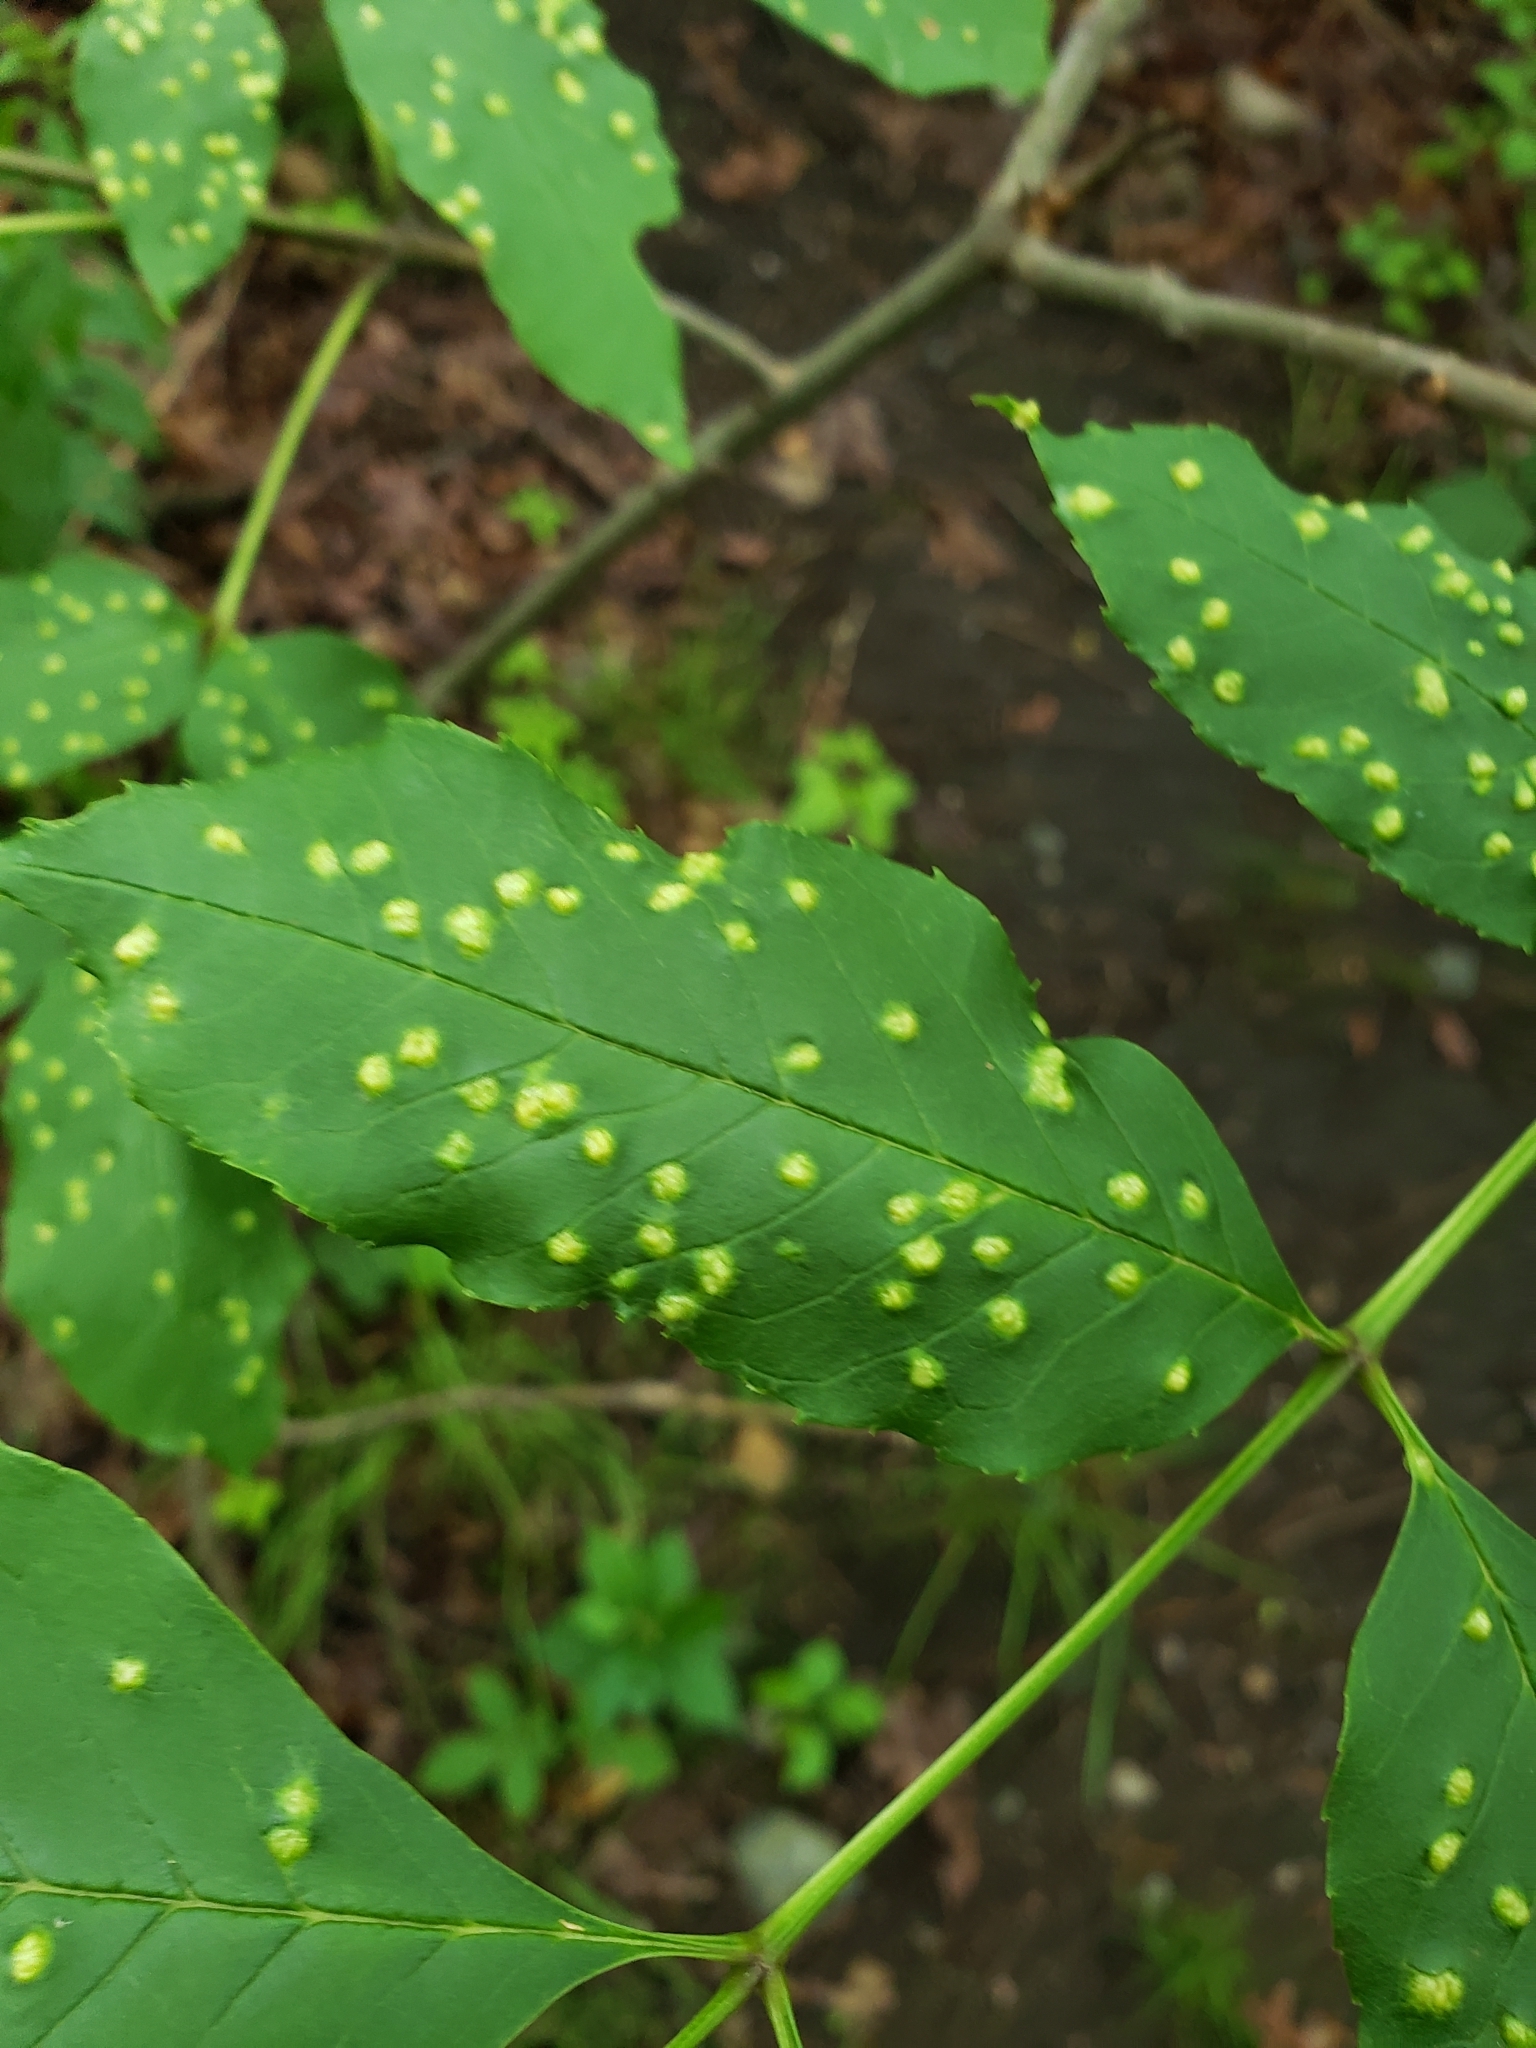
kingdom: Animalia
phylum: Arthropoda
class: Arachnida
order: Trombidiformes
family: Eriophyidae
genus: Aceria
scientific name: Aceria fraxinicola
